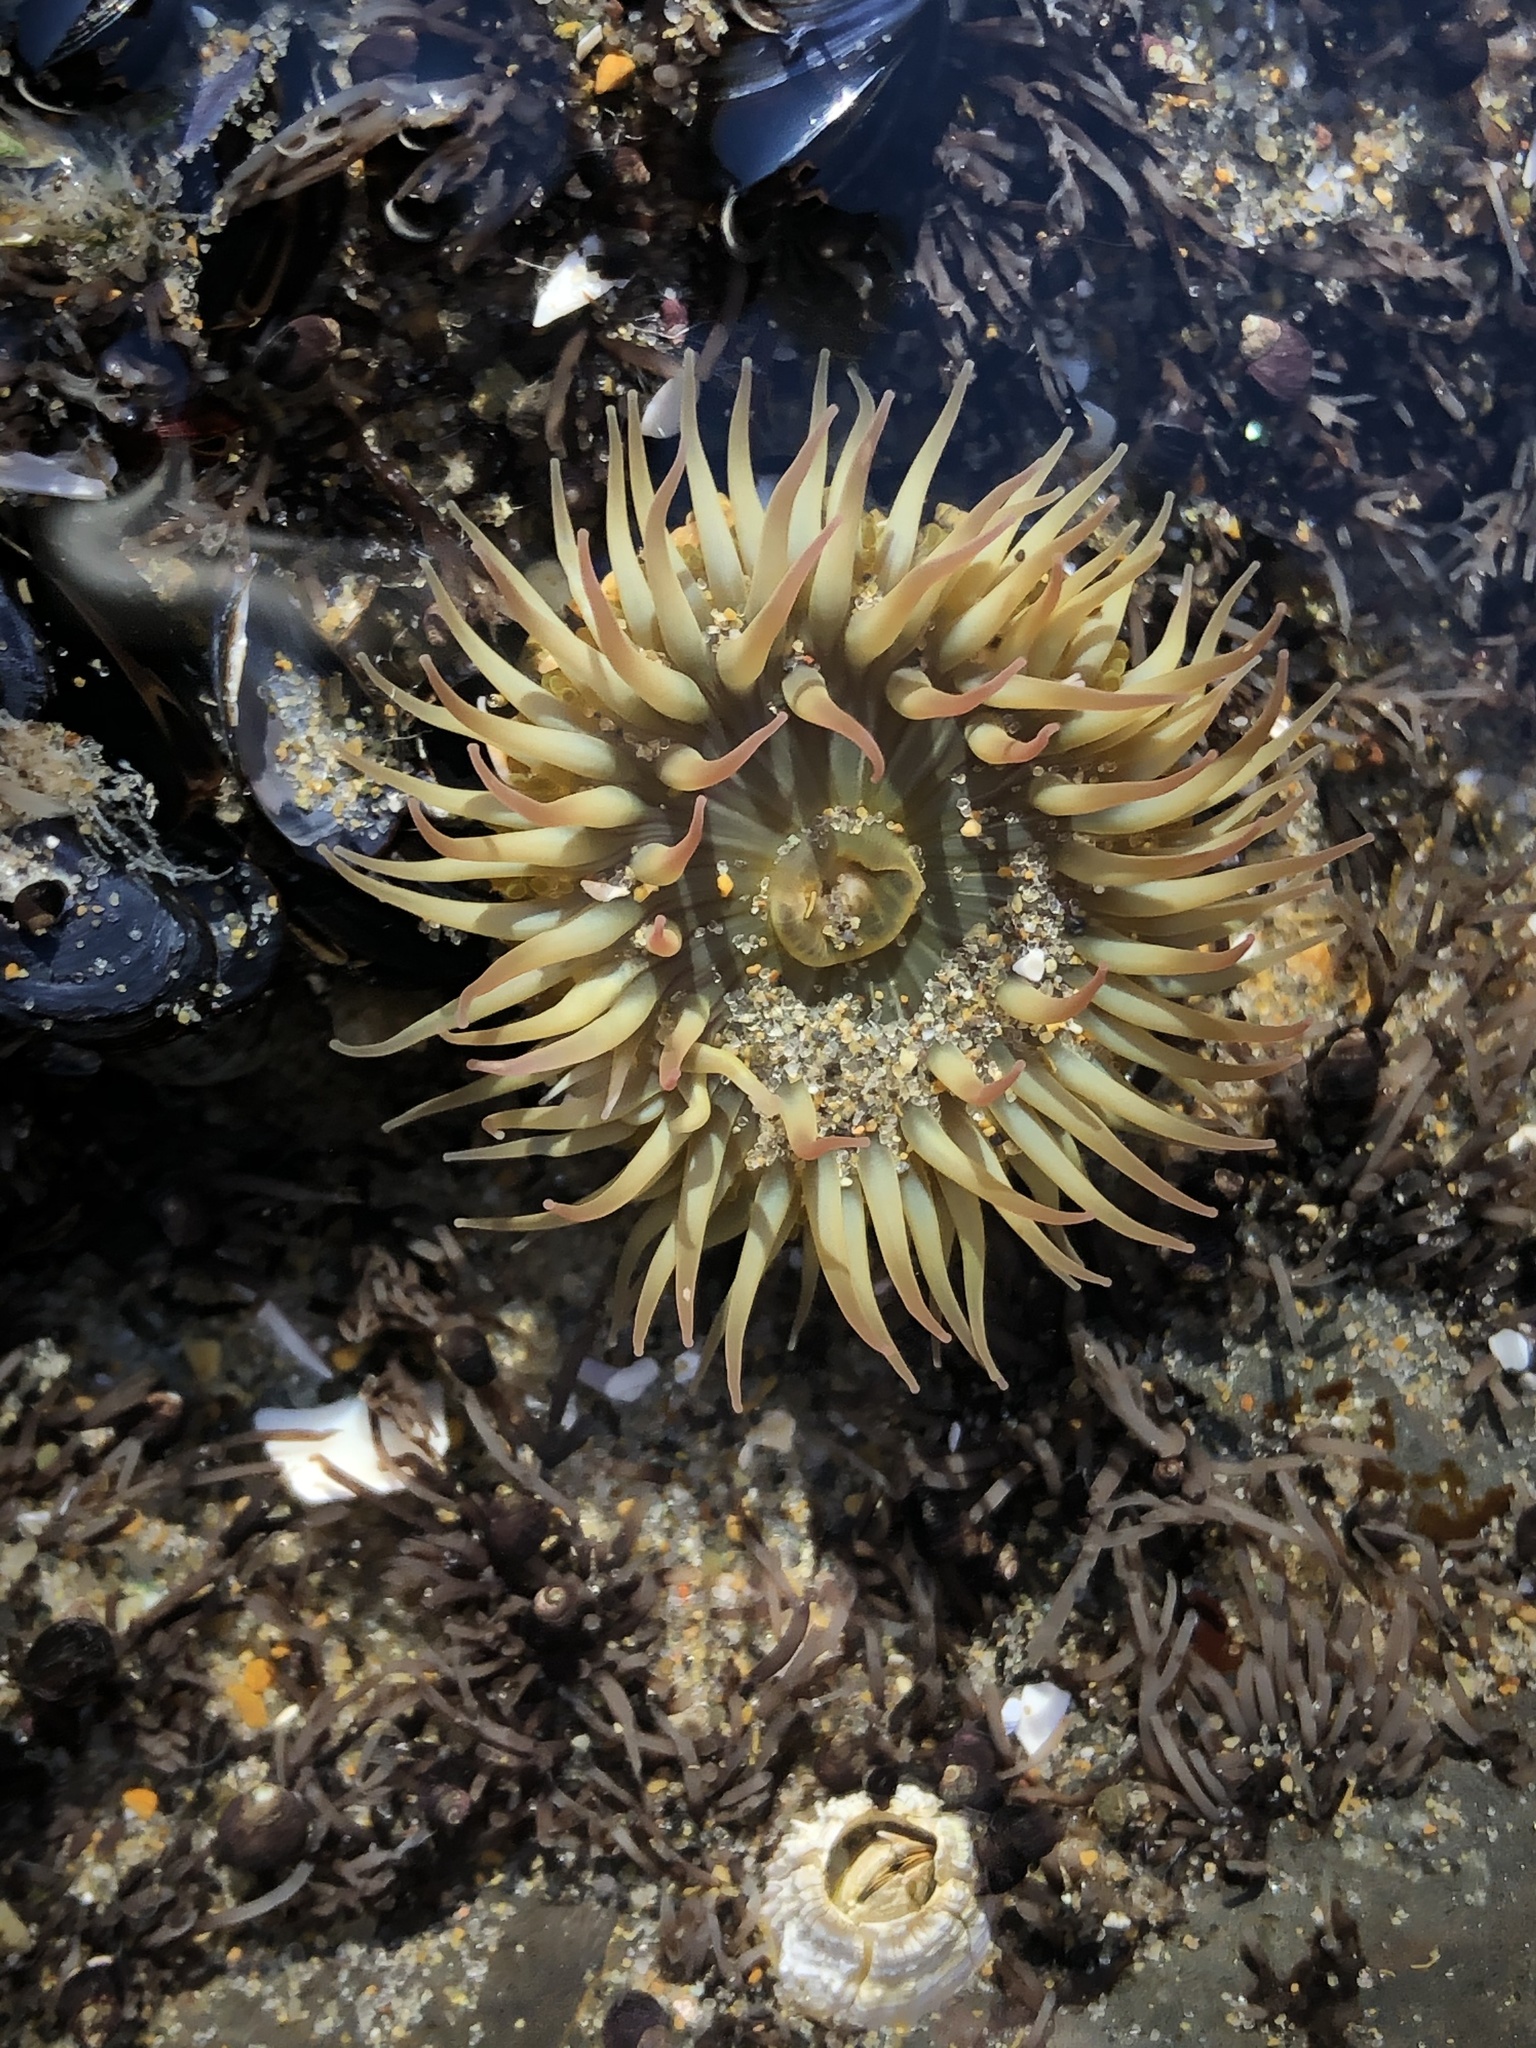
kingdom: Animalia
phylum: Cnidaria
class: Anthozoa
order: Actiniaria
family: Actiniidae
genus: Anthopleura
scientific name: Anthopleura elegantissima
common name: Clonal anemone
